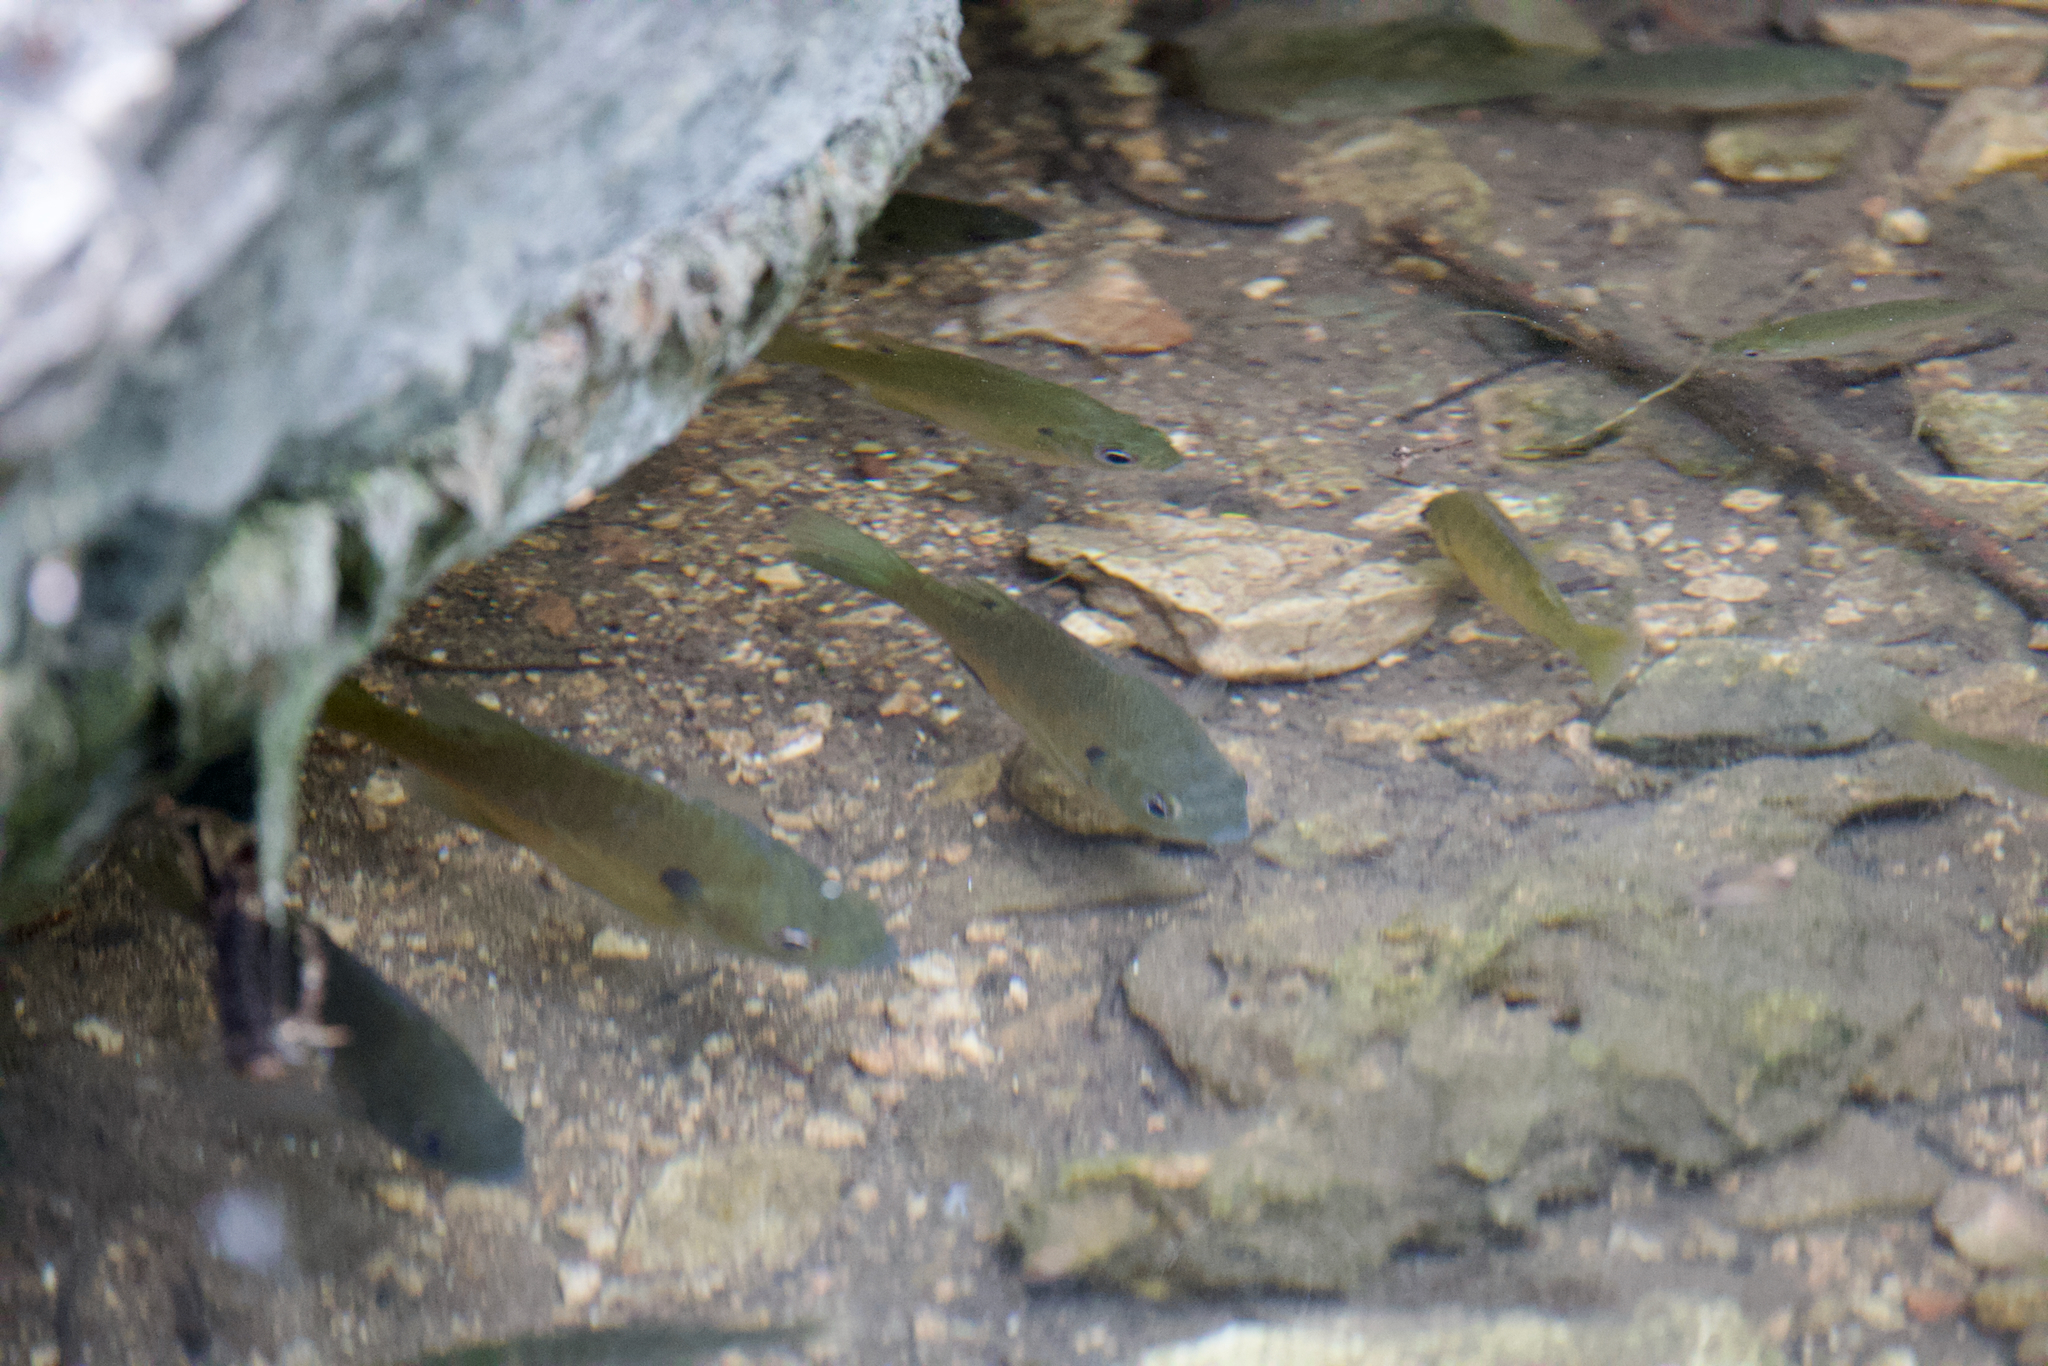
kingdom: Animalia
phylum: Chordata
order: Perciformes
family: Centrarchidae
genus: Lepomis
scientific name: Lepomis macrochirus
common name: Bluegill
